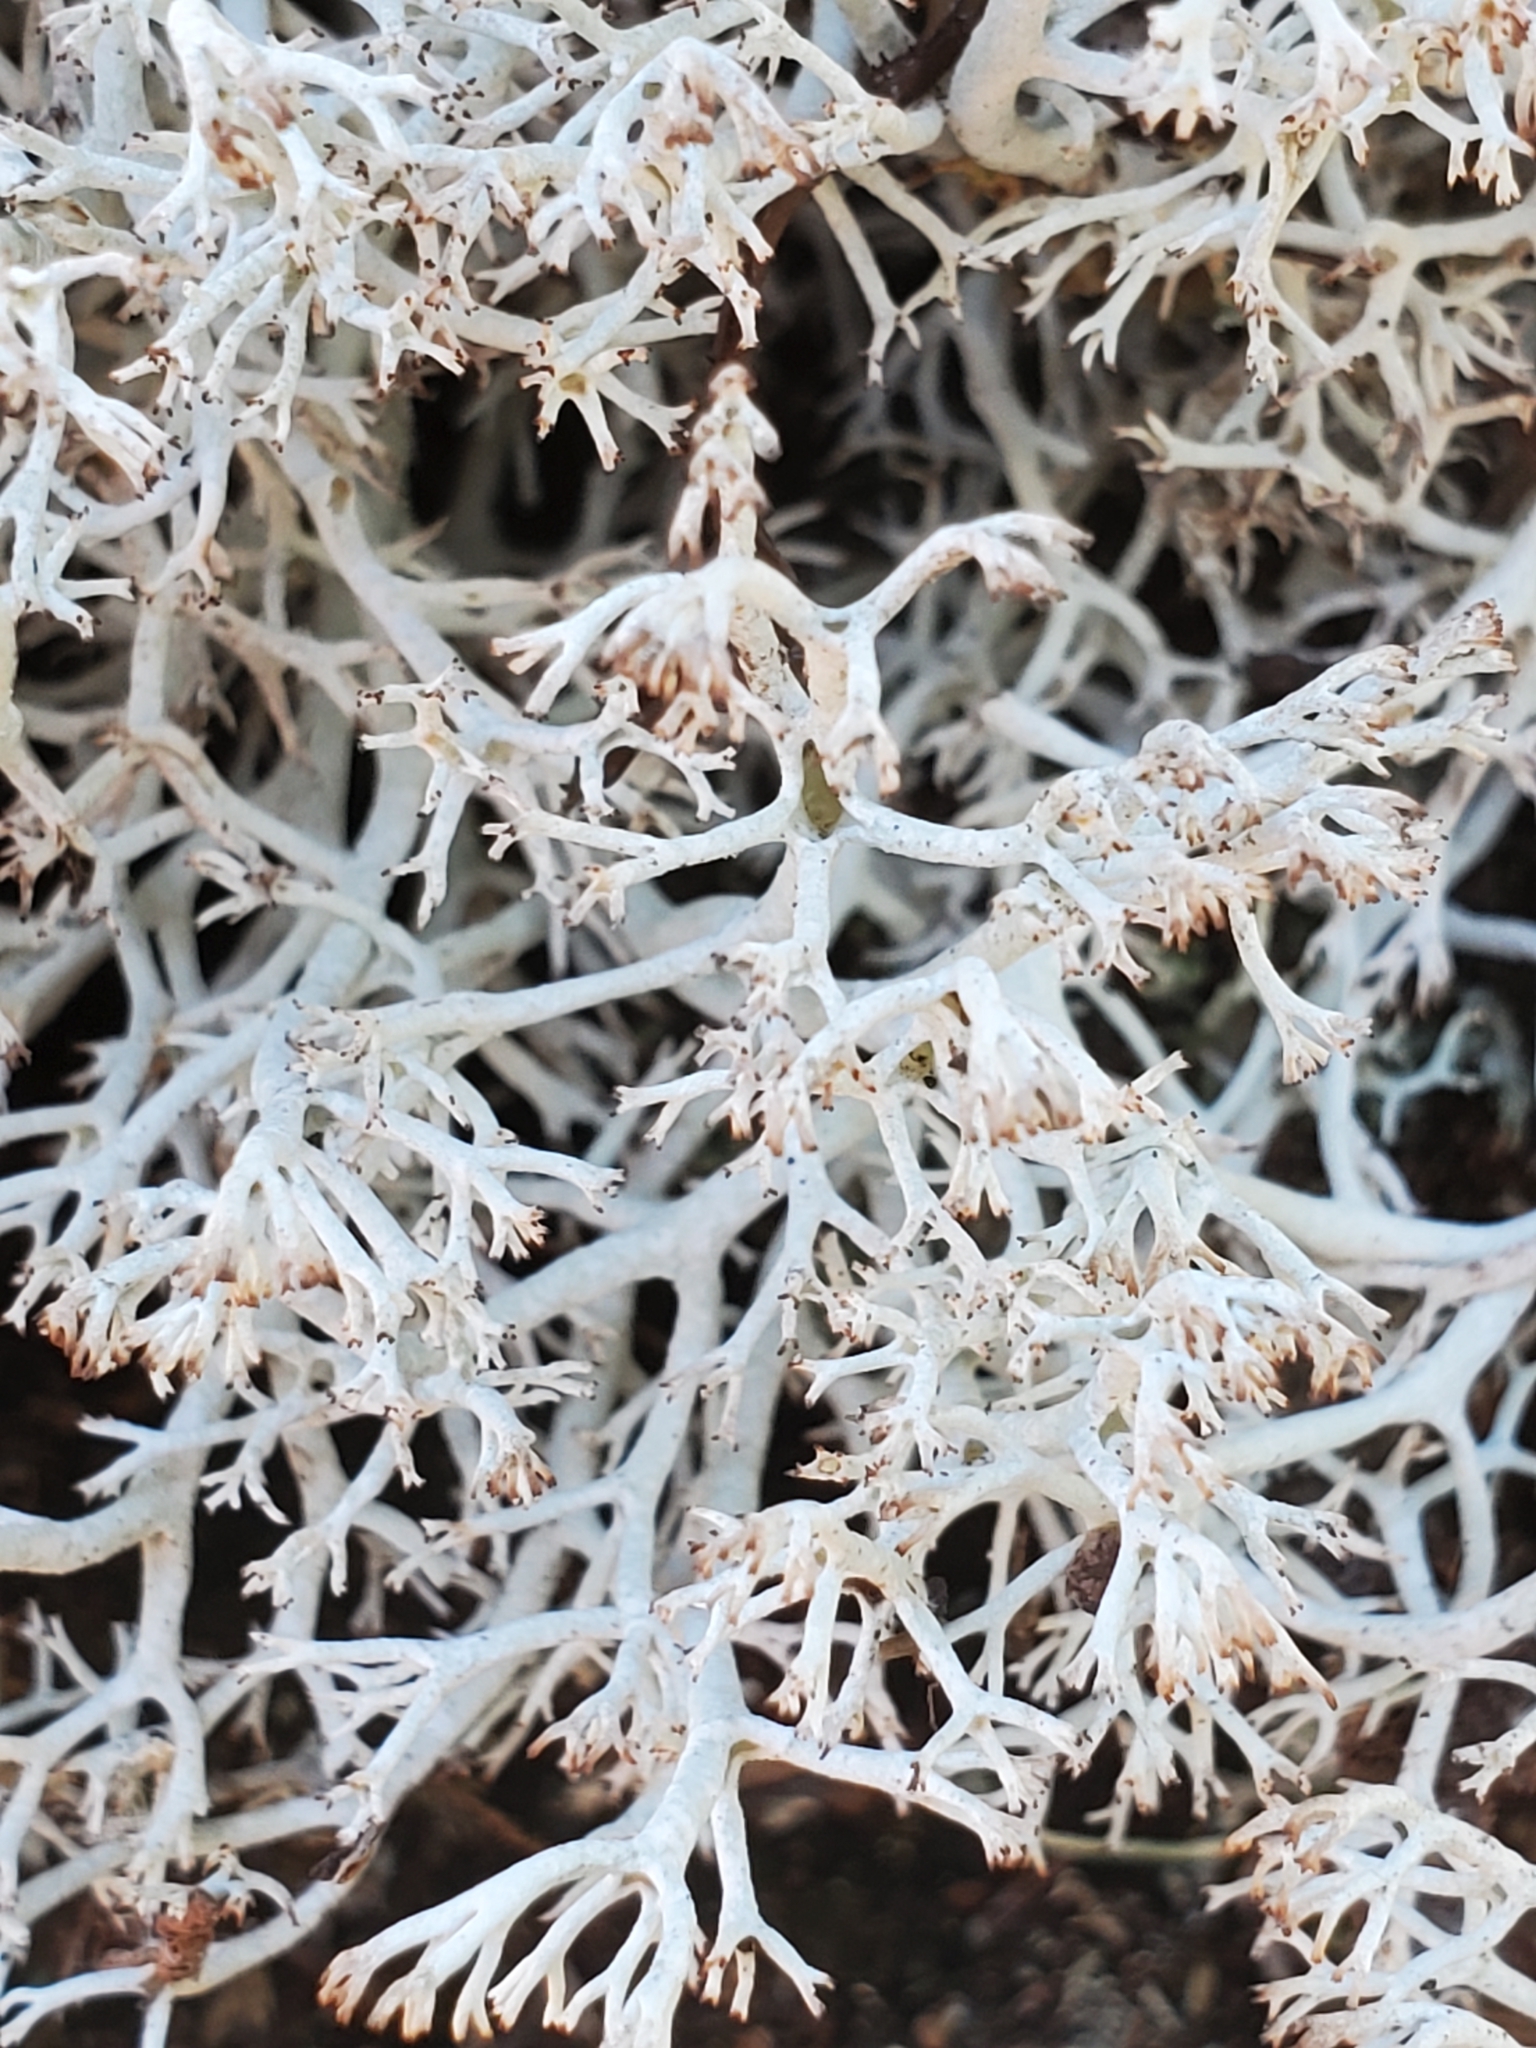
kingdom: Fungi
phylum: Ascomycota
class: Lecanoromycetes
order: Lecanorales
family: Cladoniaceae
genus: Cladonia
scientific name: Cladonia rangiferina
